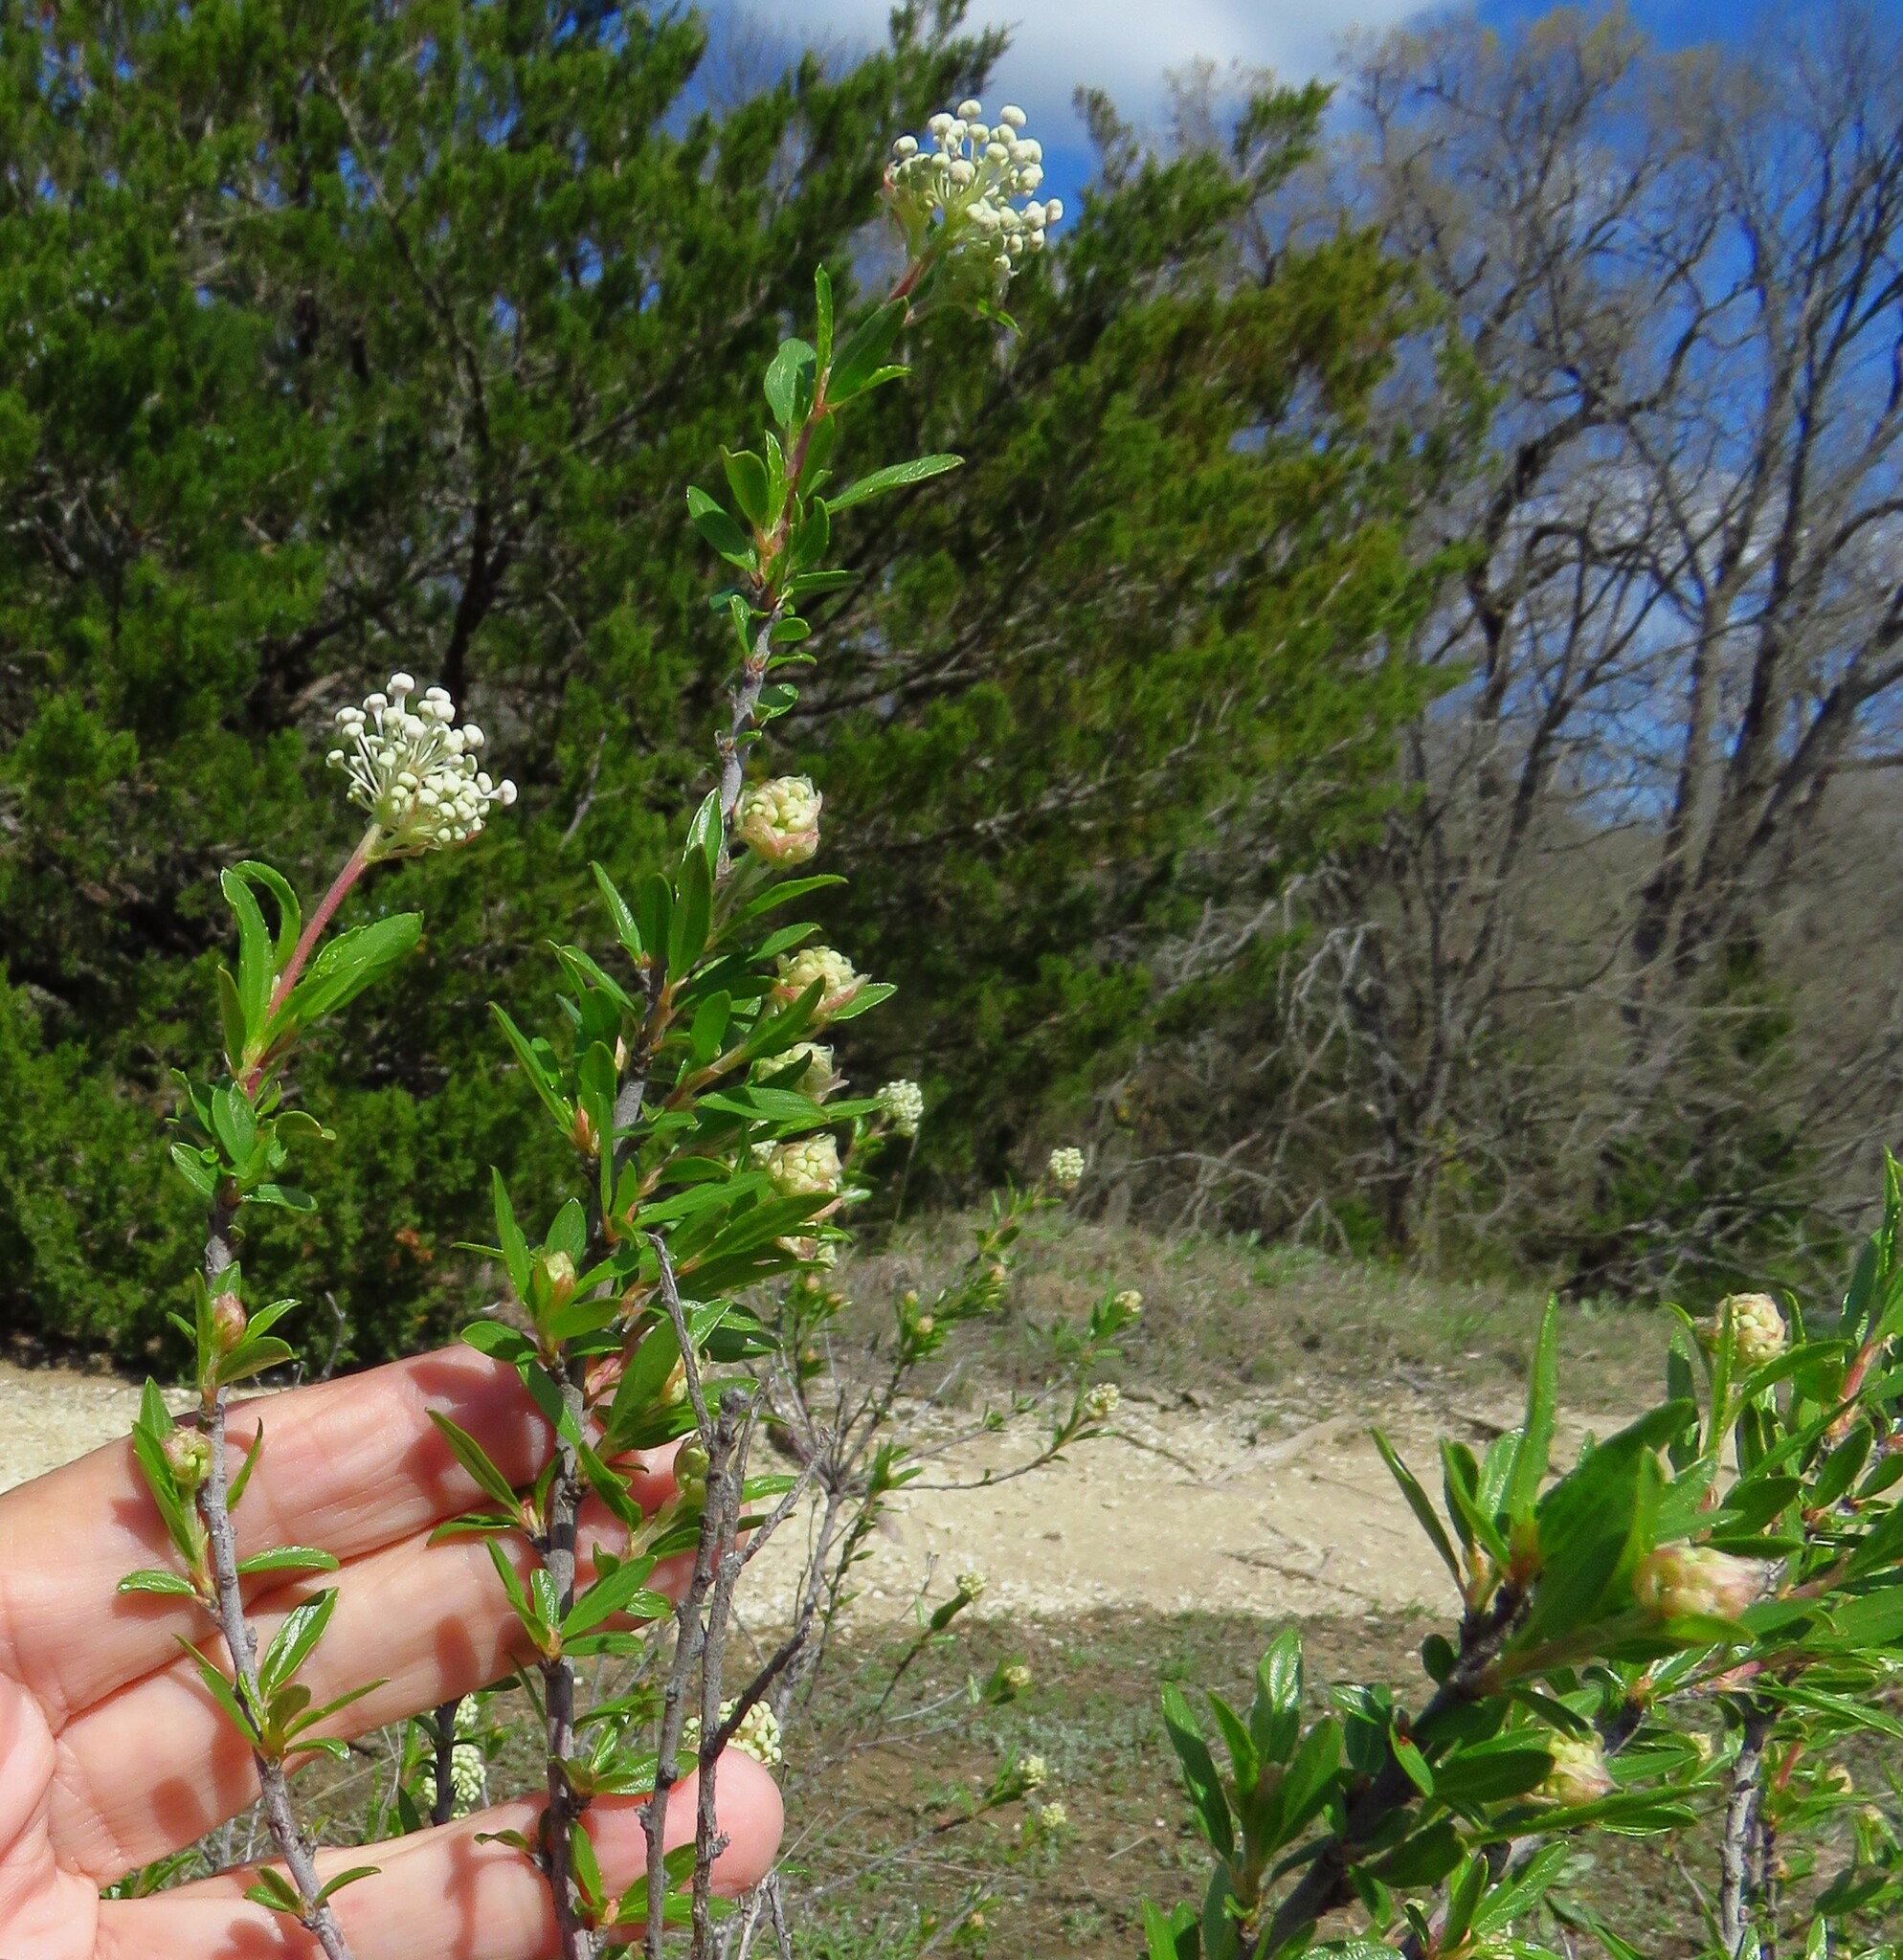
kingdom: Plantae
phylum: Tracheophyta
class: Magnoliopsida
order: Rosales
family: Rhamnaceae
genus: Ceanothus
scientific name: Ceanothus herbaceus
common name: Inland ceanothus
